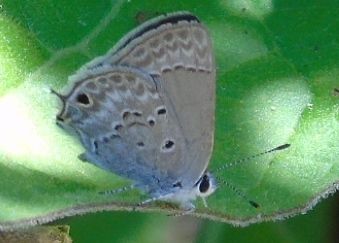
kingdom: Animalia
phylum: Arthropoda
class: Insecta
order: Lepidoptera
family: Lycaenidae
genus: Callicista
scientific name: Callicista columella
